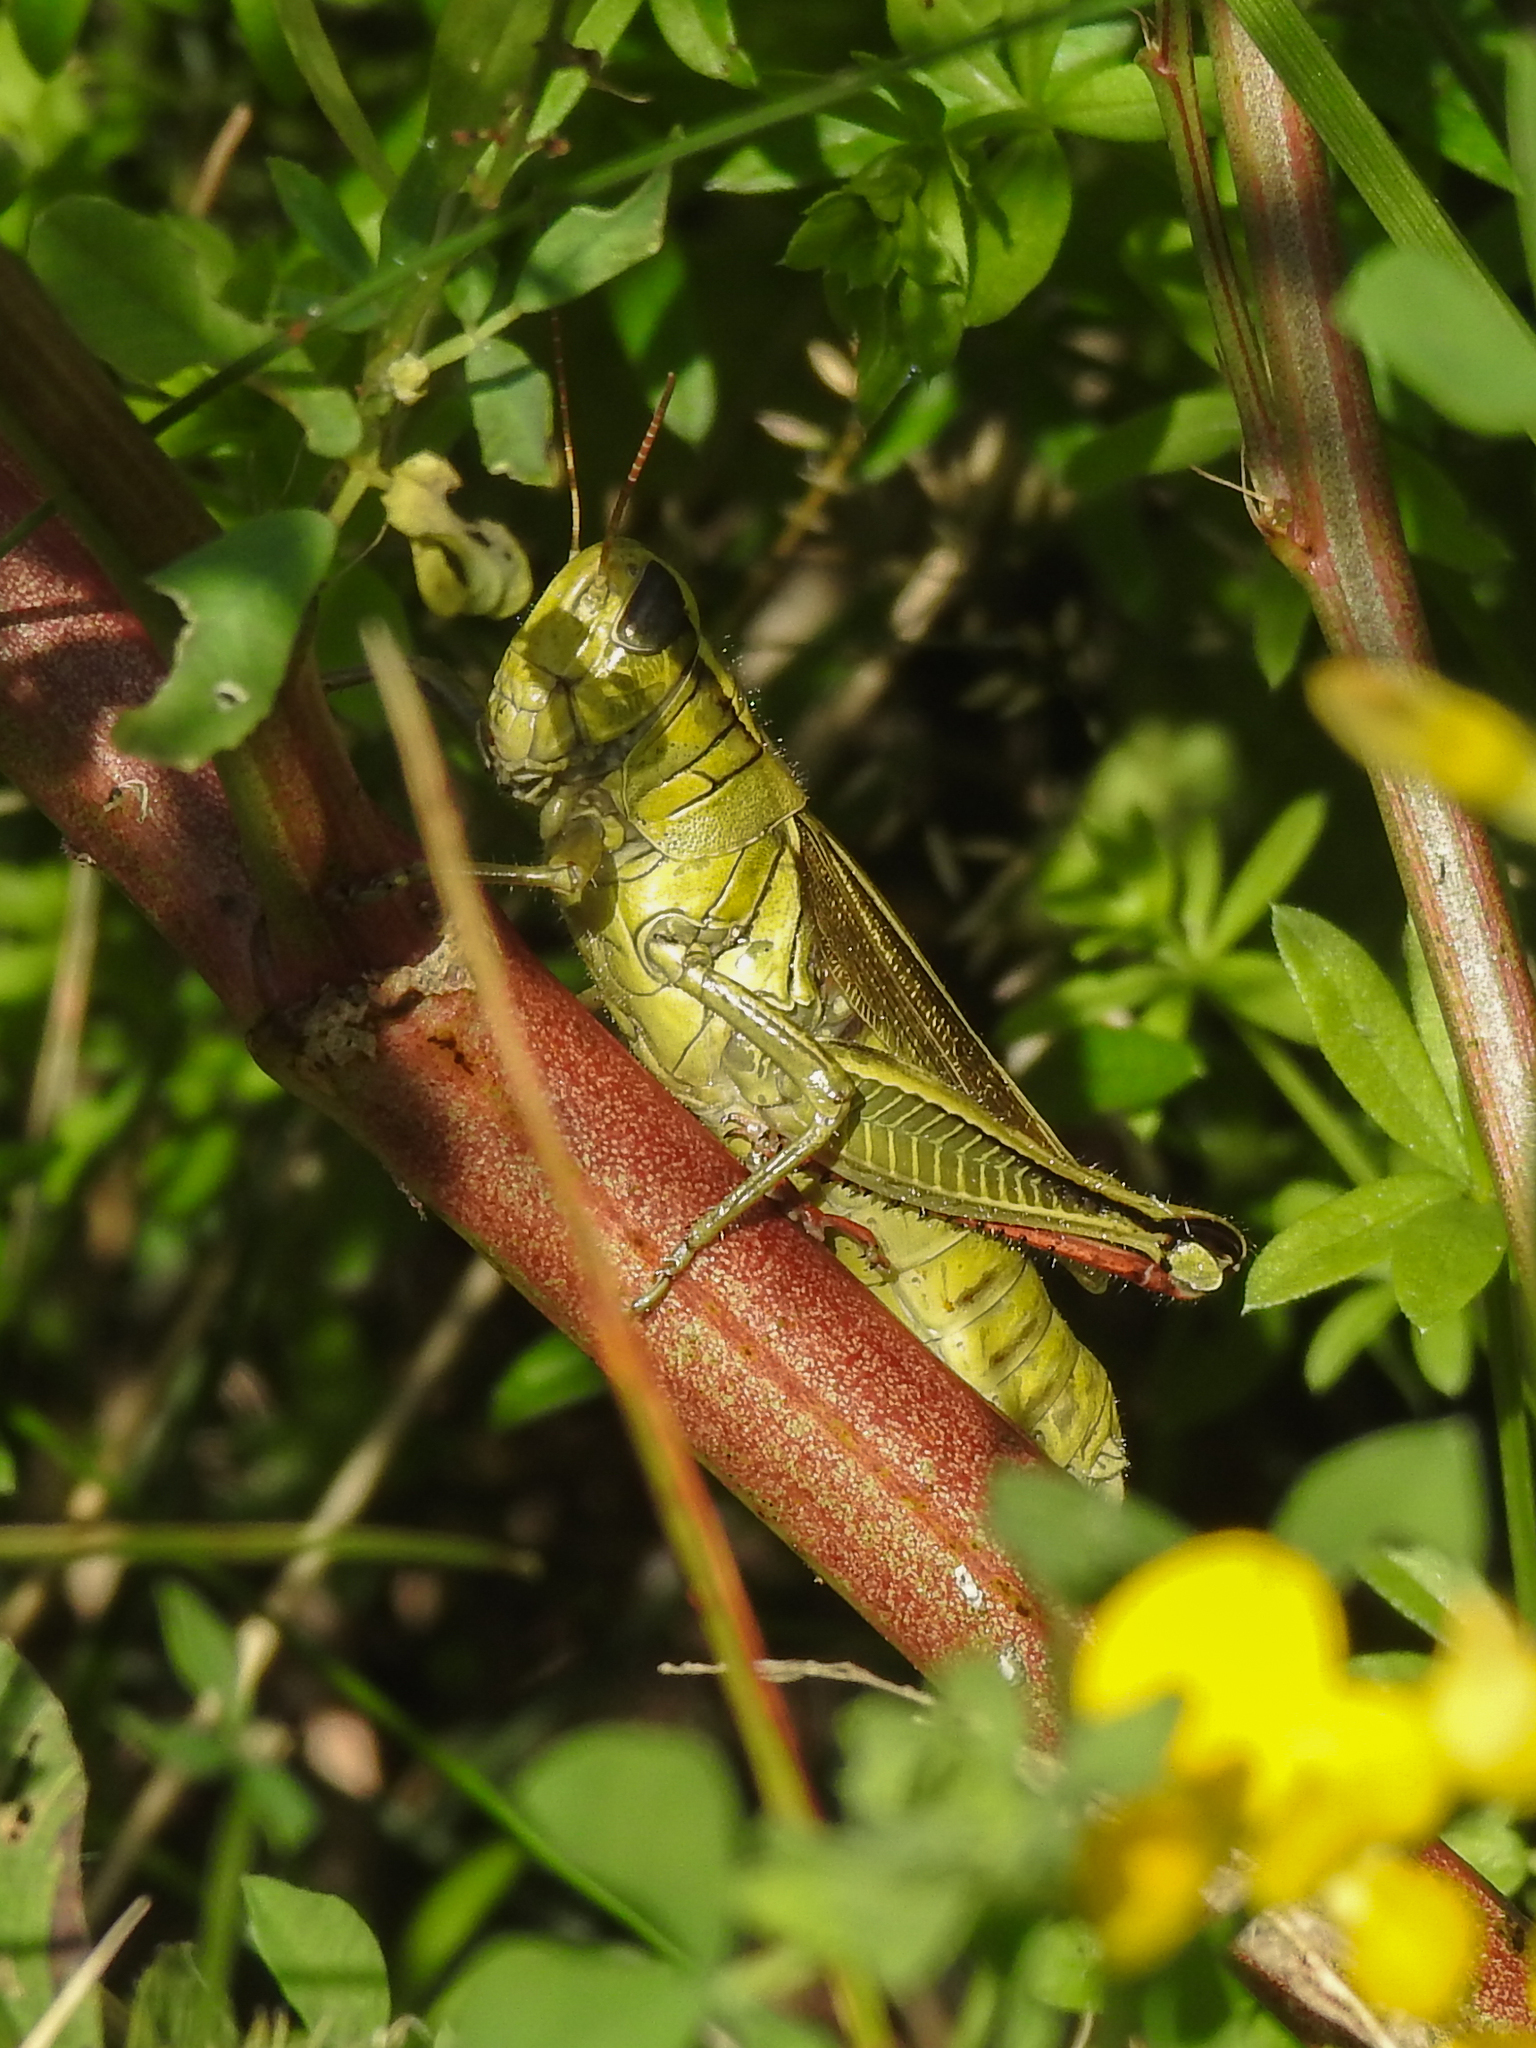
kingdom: Animalia
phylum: Arthropoda
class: Insecta
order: Orthoptera
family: Acrididae
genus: Melanoplus
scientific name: Melanoplus bivittatus
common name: Two-striped grasshopper
